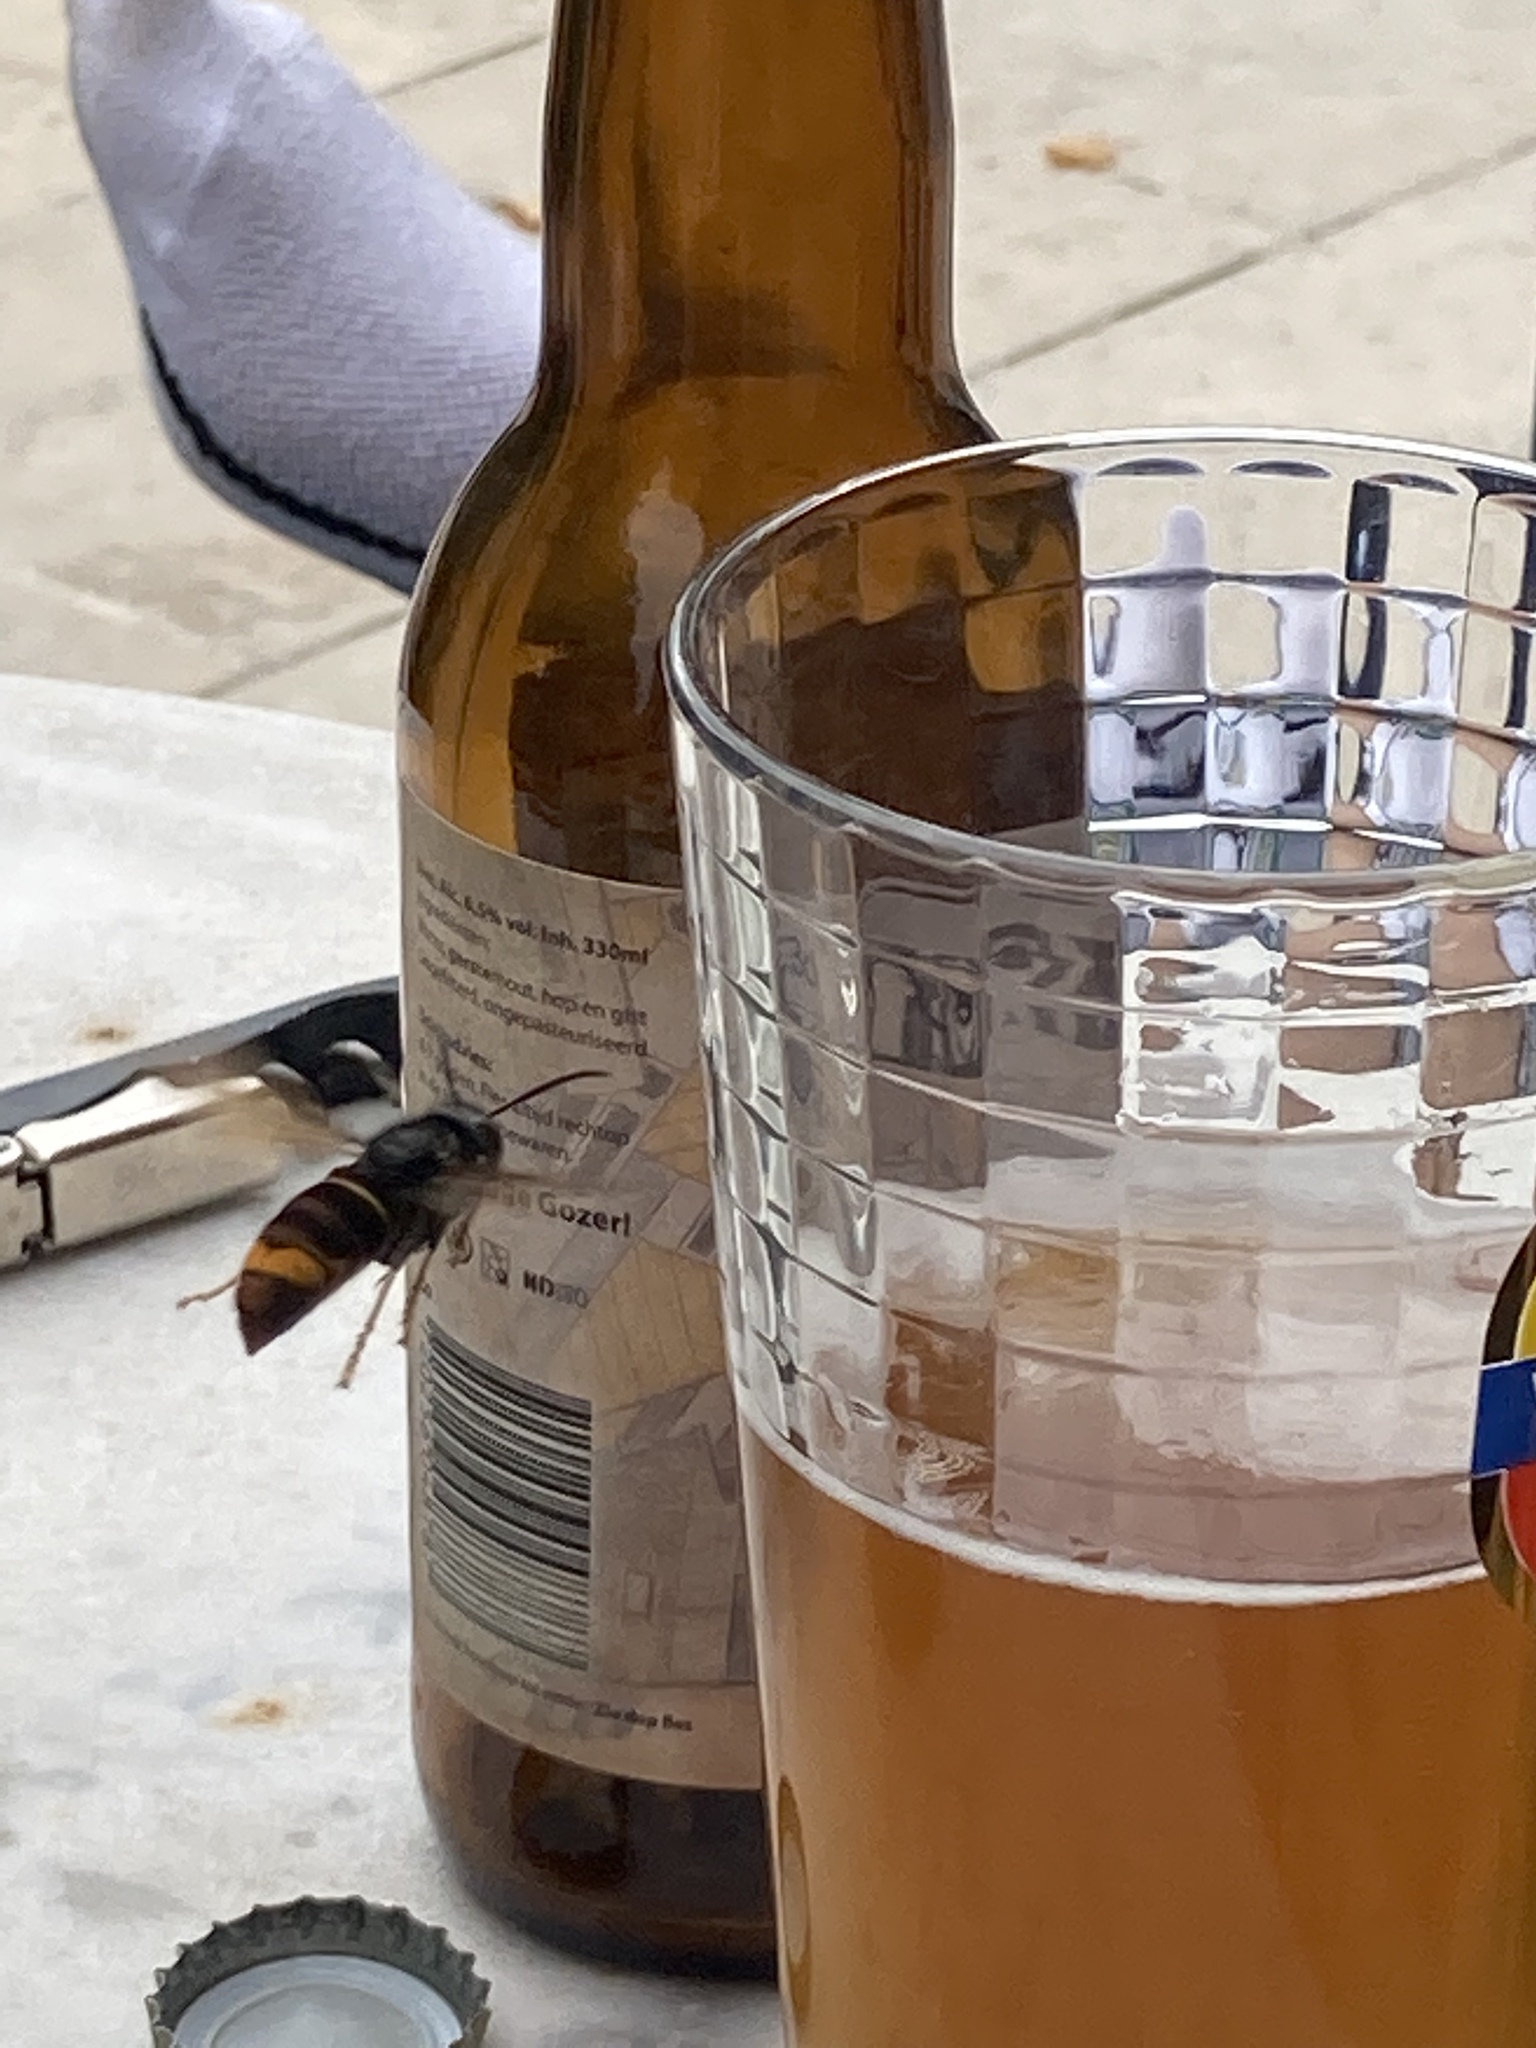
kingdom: Animalia
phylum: Arthropoda
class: Insecta
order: Hymenoptera
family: Vespidae
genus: Vespa
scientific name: Vespa velutina
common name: Asian hornet
